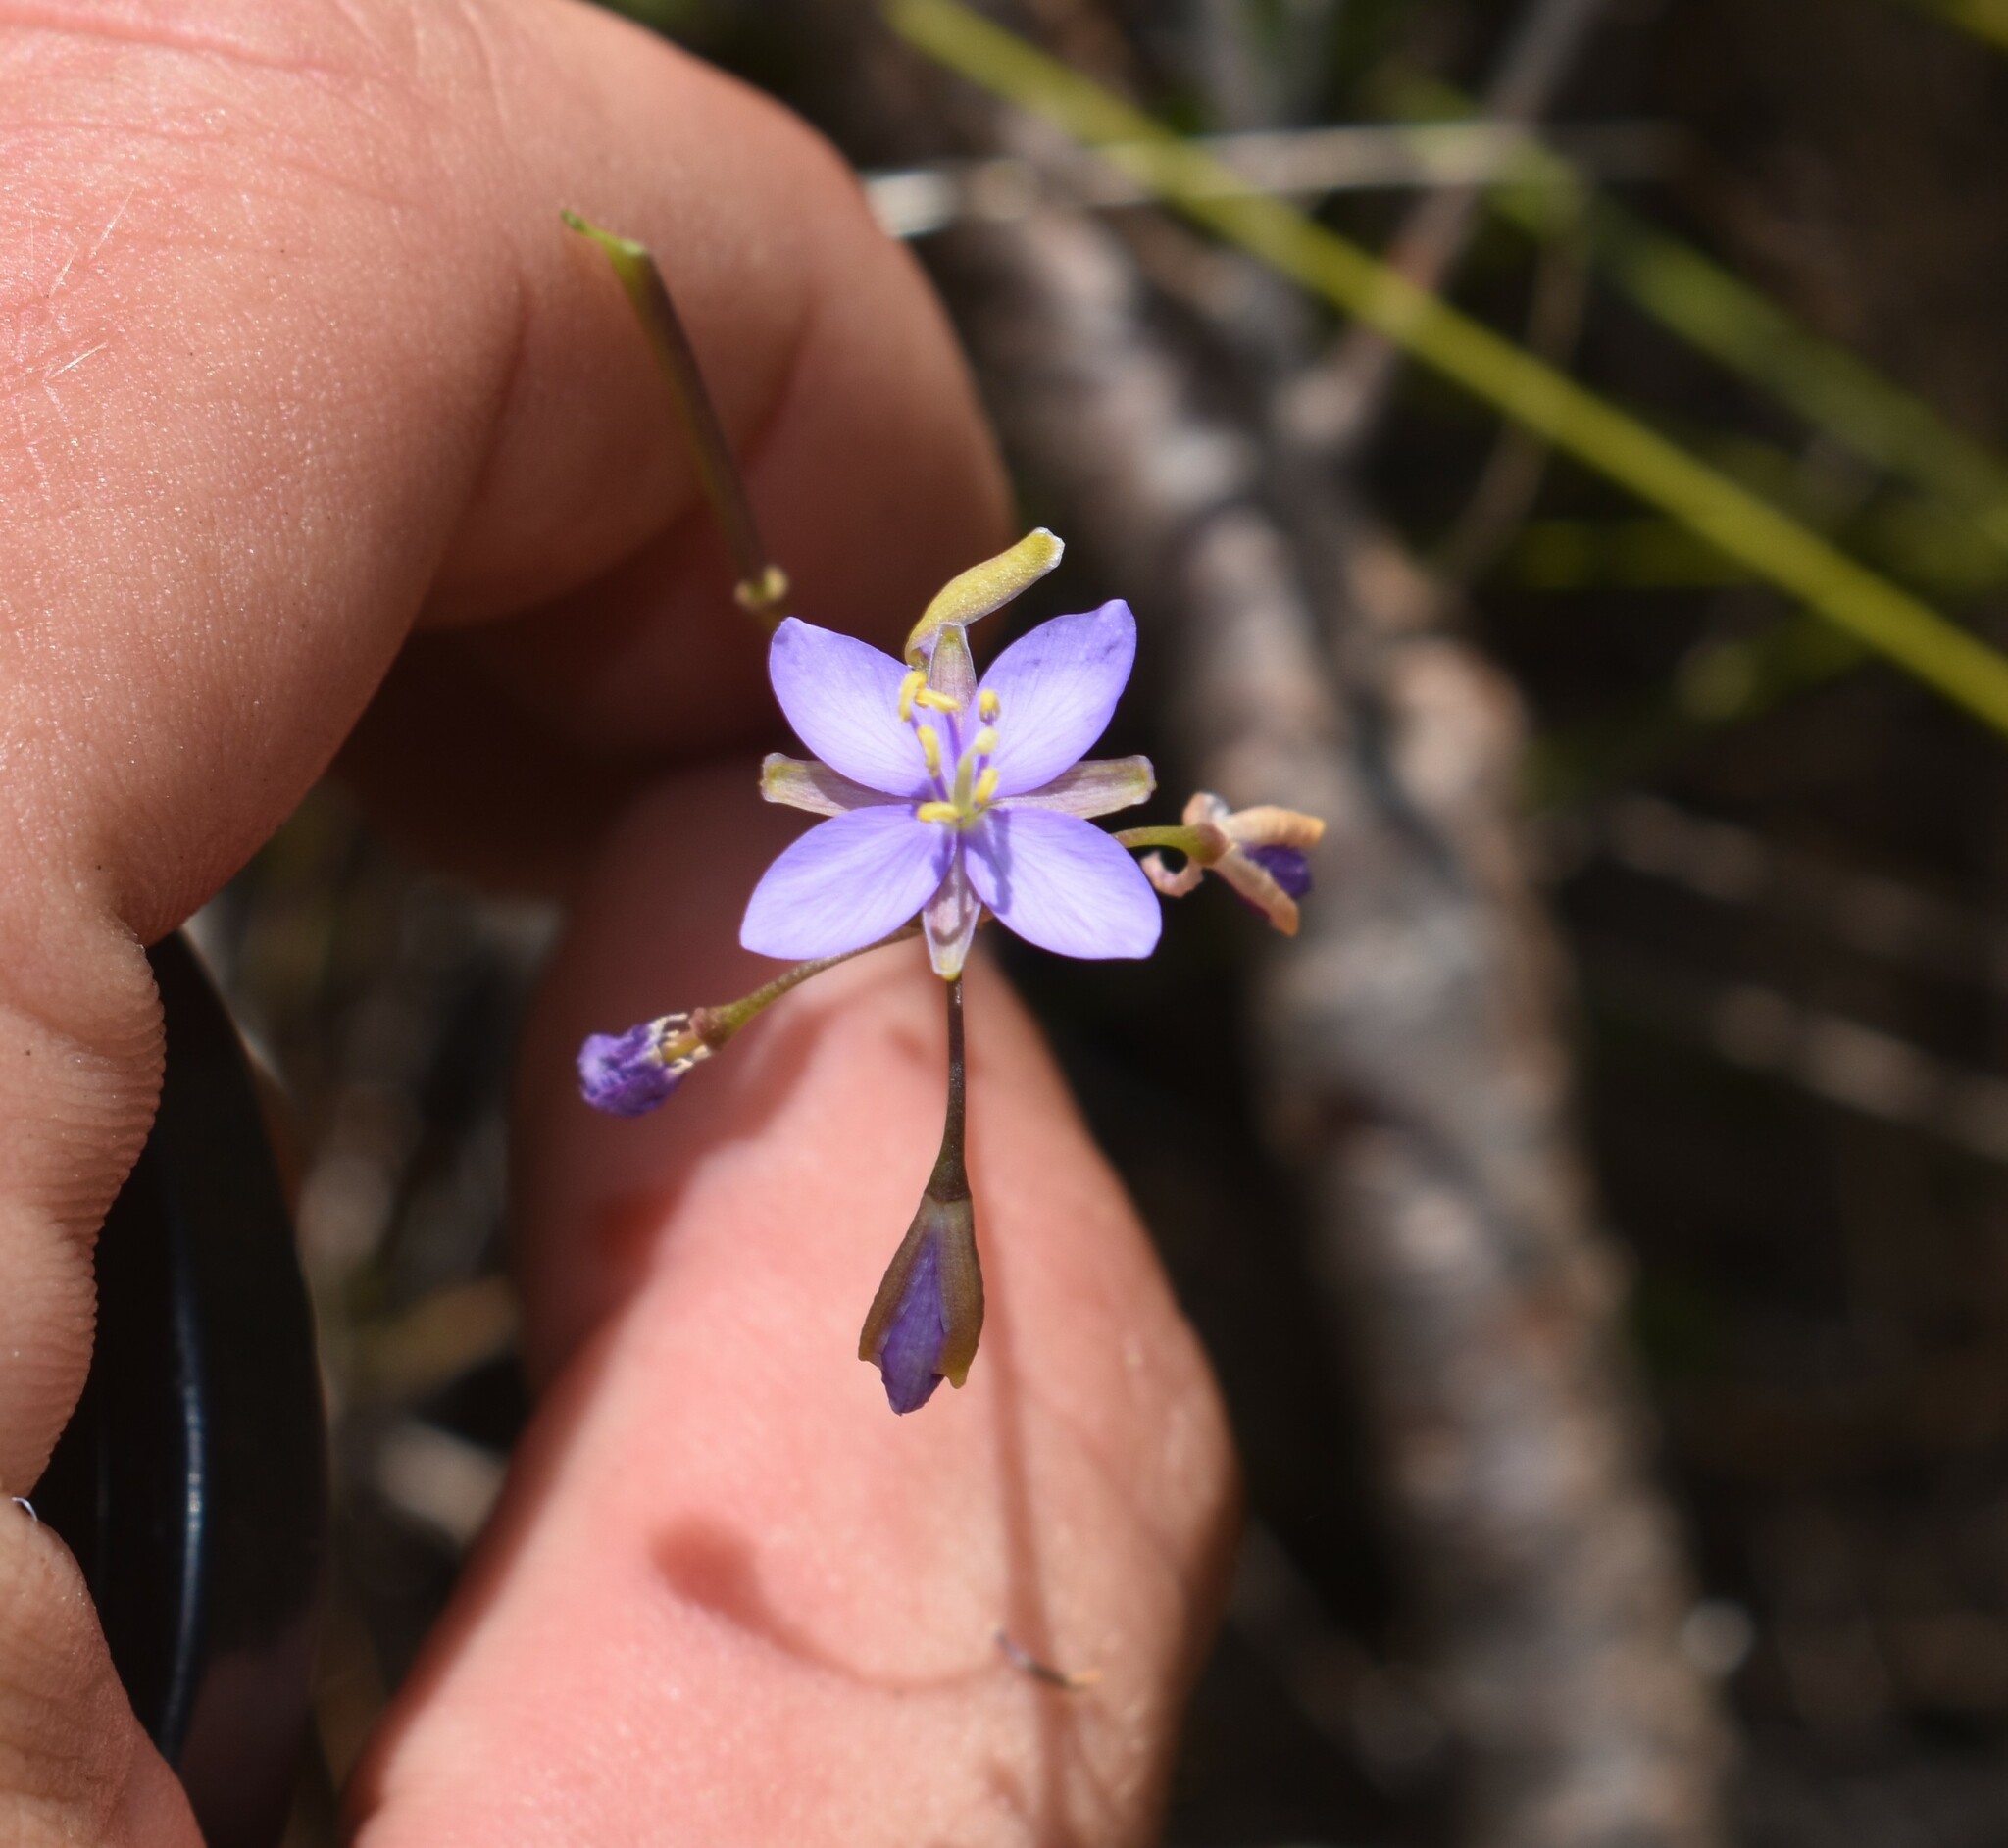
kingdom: Plantae
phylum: Tracheophyta
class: Magnoliopsida
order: Brassicales
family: Brassicaceae
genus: Heliophila
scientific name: Heliophila subulata
